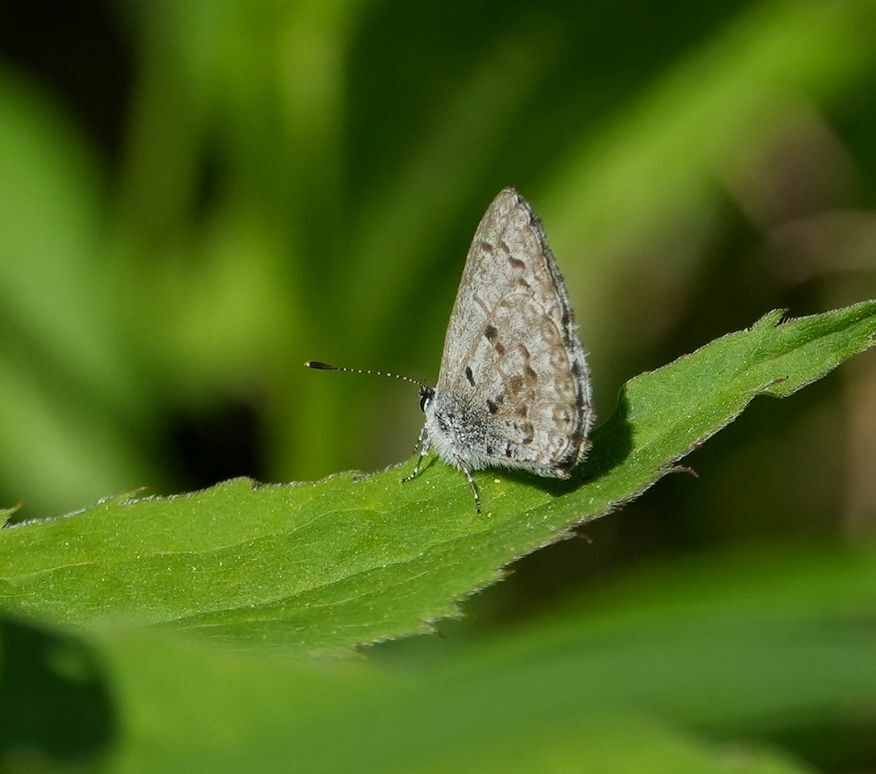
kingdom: Animalia
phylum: Arthropoda
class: Insecta
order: Lepidoptera
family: Lycaenidae
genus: Celastrina
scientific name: Celastrina lucia
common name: Lucia azure
